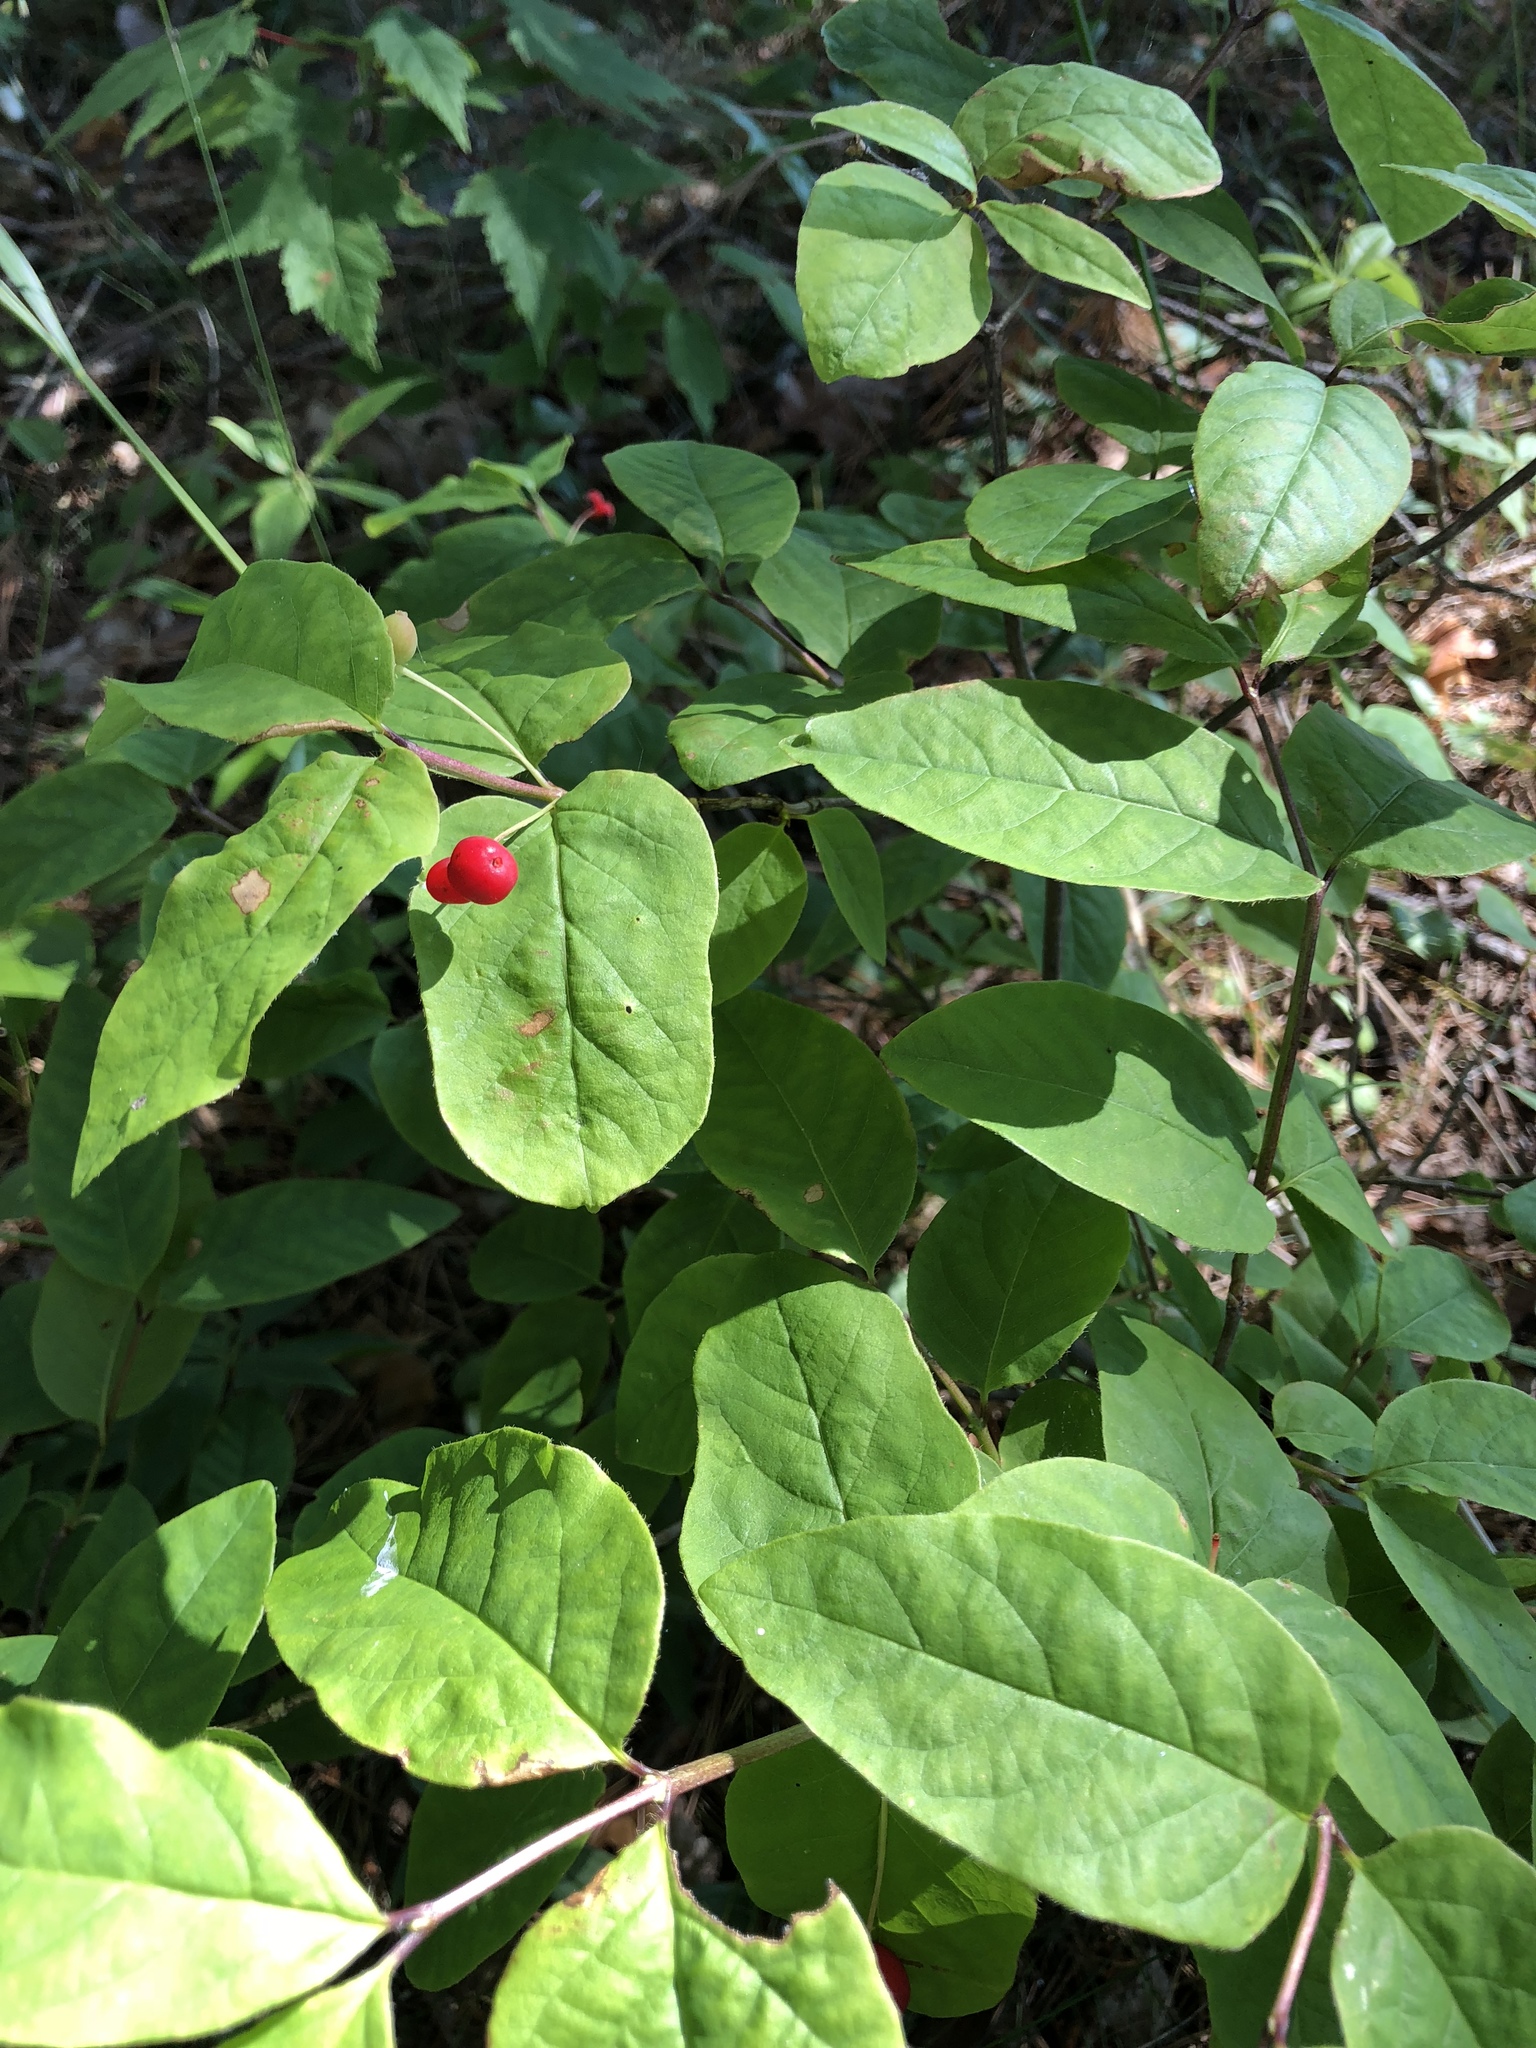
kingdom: Plantae
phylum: Tracheophyta
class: Magnoliopsida
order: Dipsacales
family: Caprifoliaceae
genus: Lonicera
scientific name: Lonicera canadensis
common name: American fly-honeysuckle
